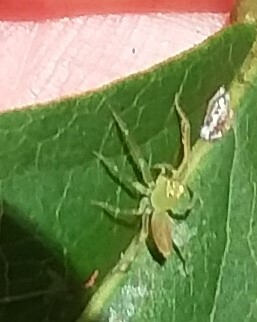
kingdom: Animalia
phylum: Arthropoda
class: Arachnida
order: Araneae
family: Salticidae
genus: Lyssomanes
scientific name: Lyssomanes viridis
